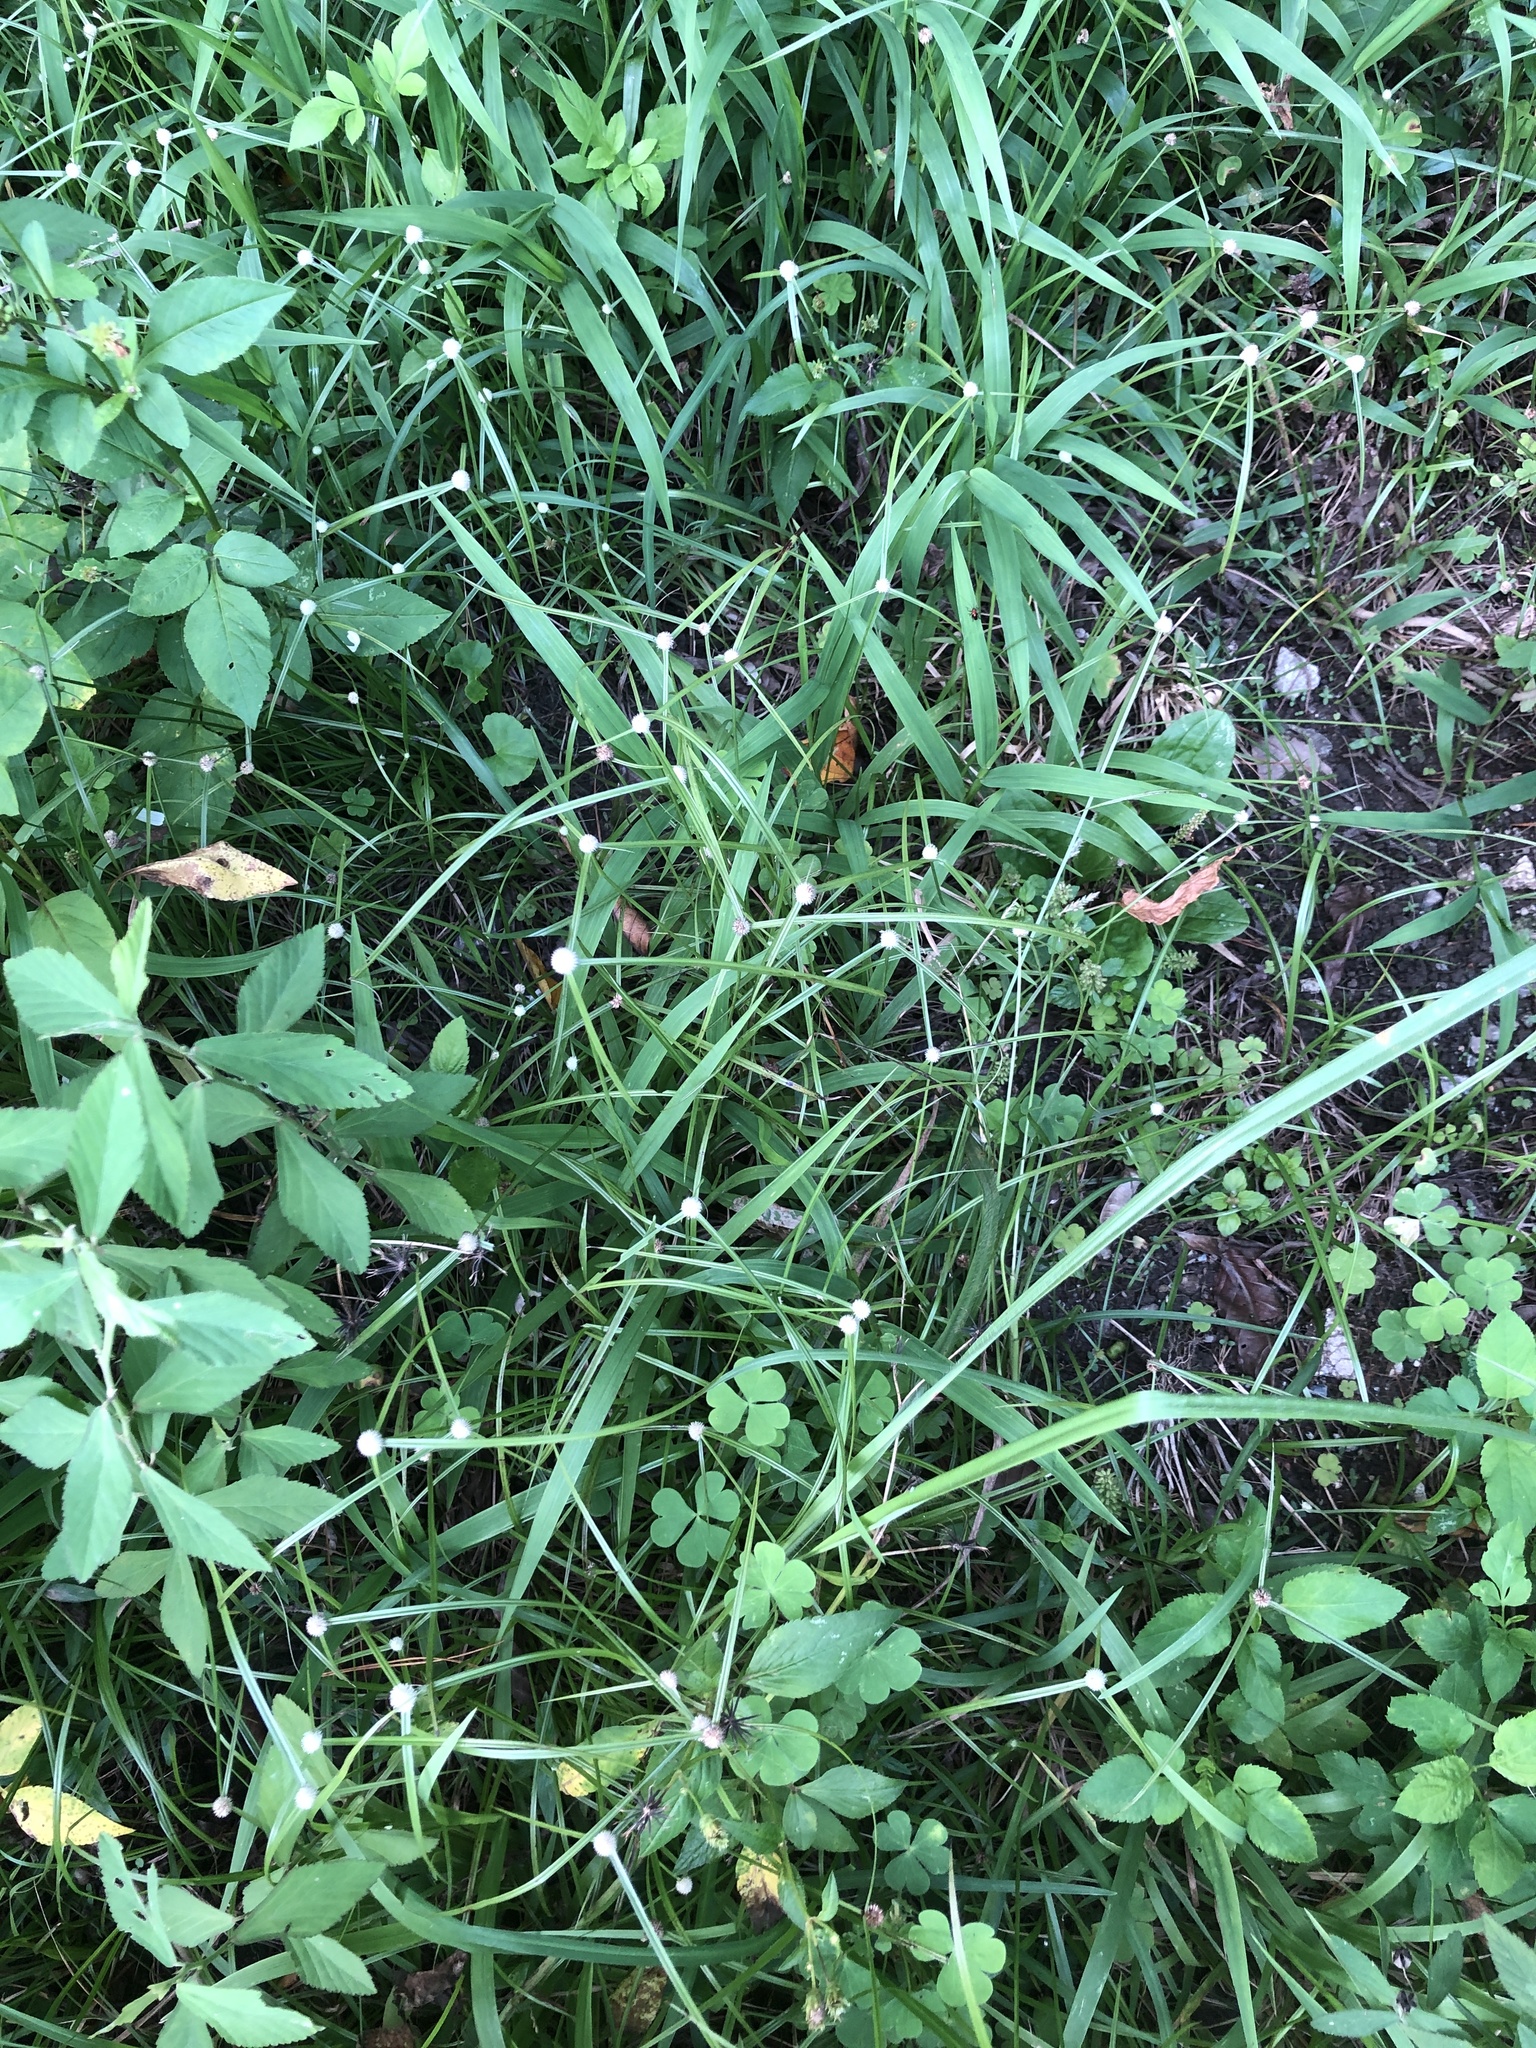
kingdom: Plantae
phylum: Tracheophyta
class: Liliopsida
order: Poales
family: Cyperaceae
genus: Cyperus
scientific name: Cyperus mindorensis
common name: Flatsedge
